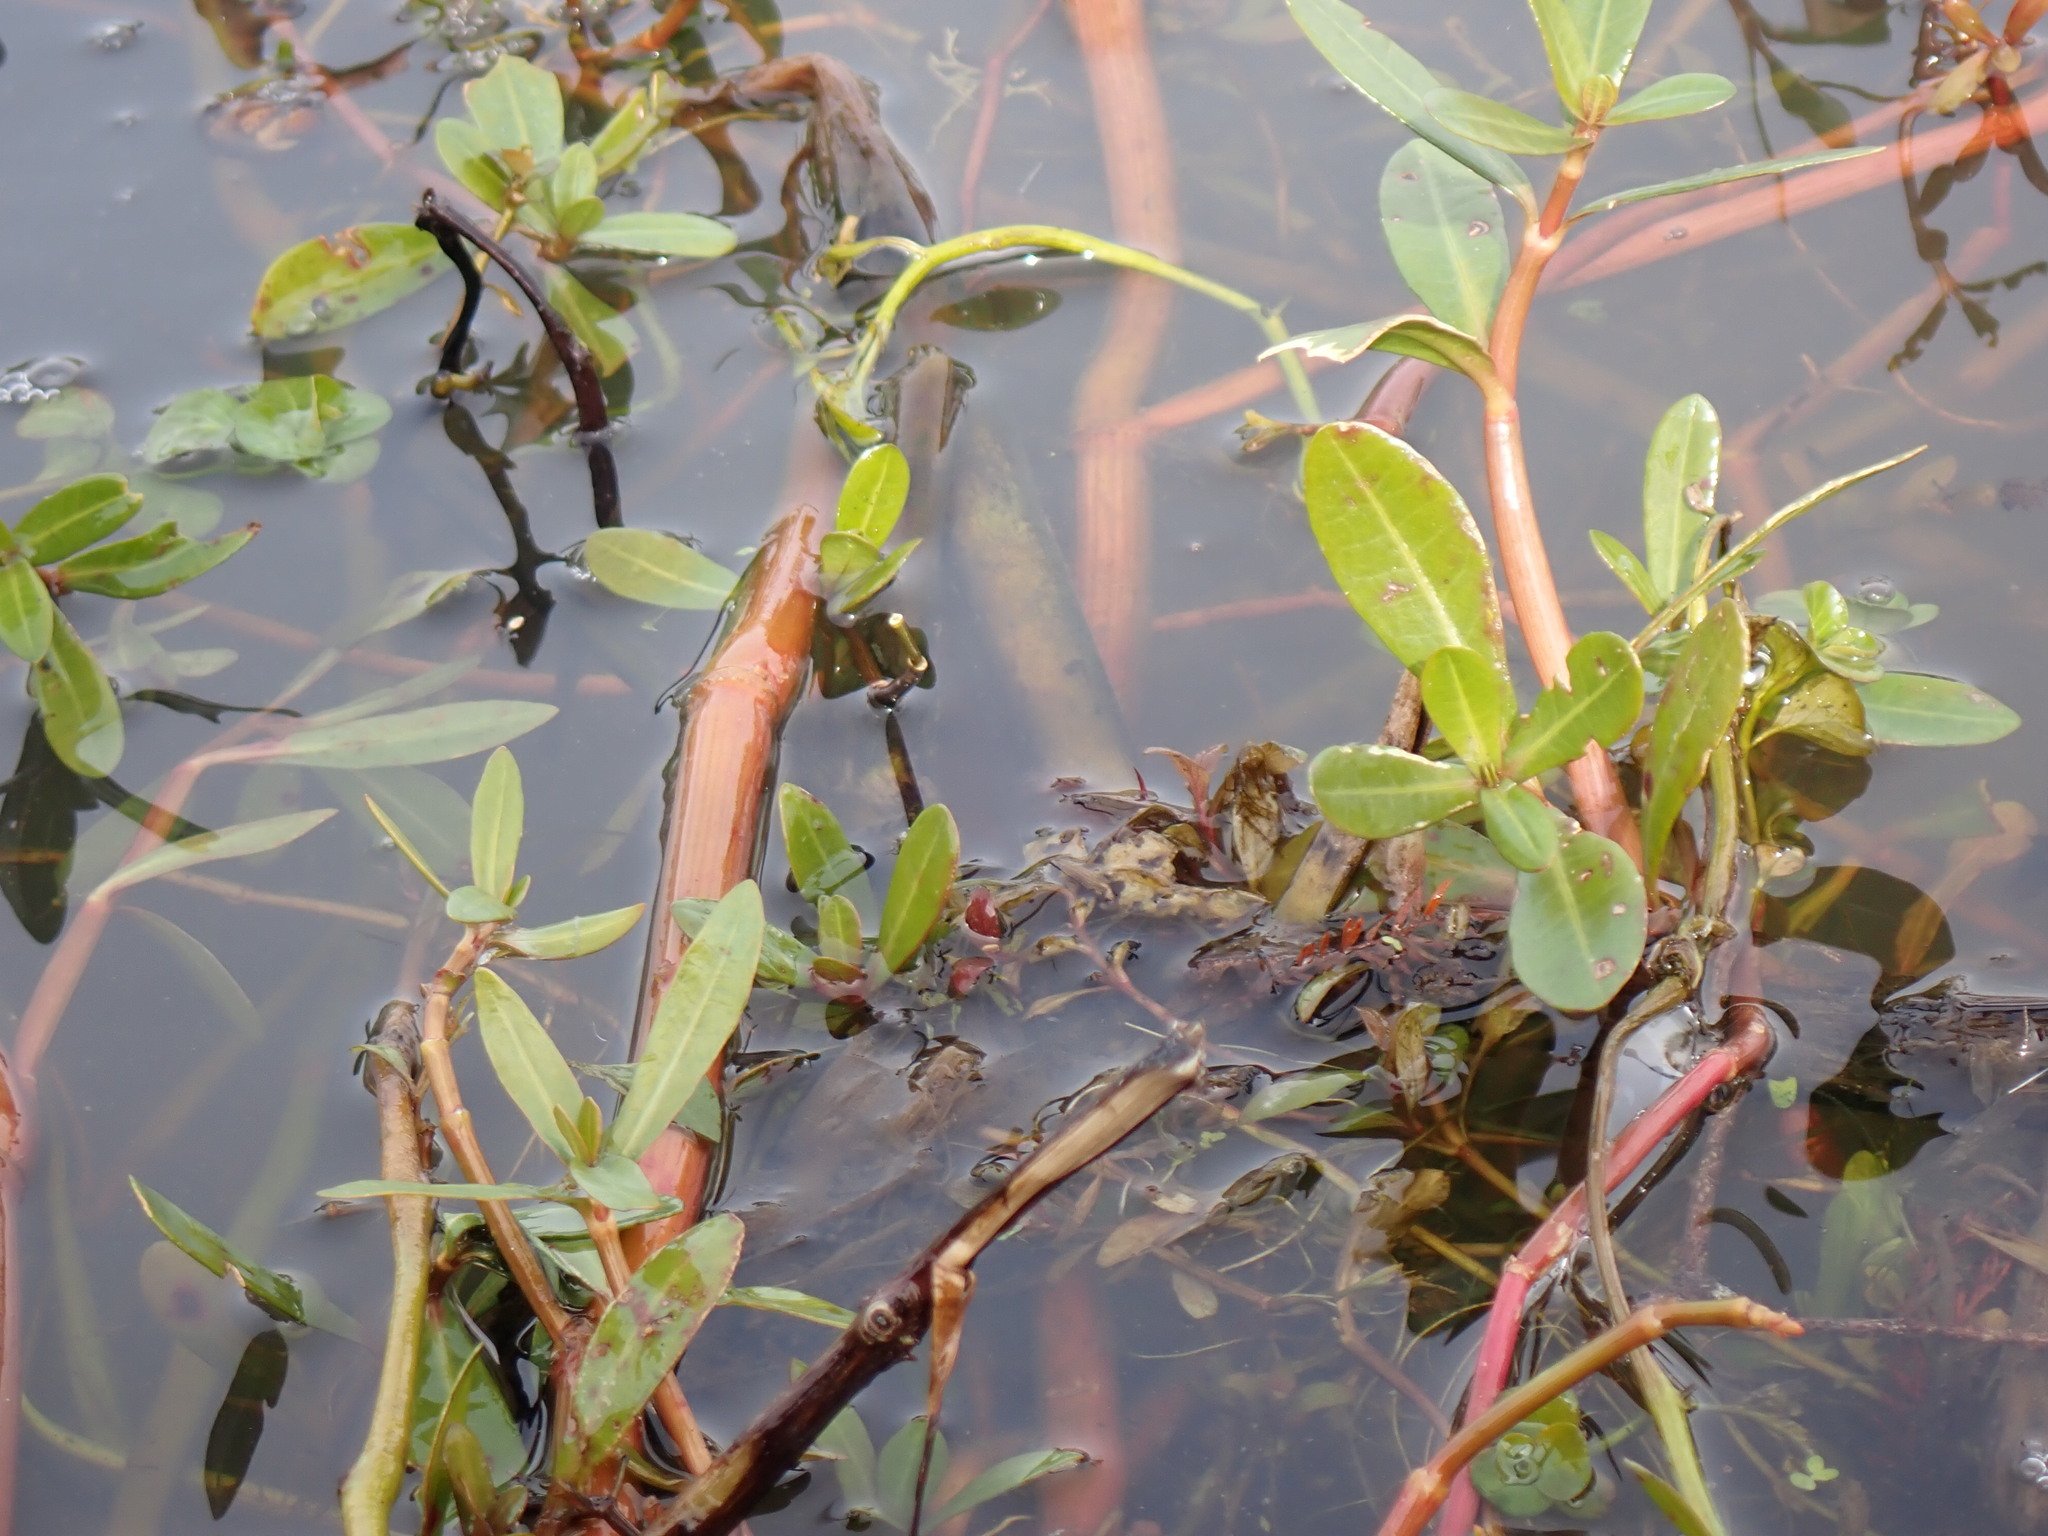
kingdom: Plantae
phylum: Tracheophyta
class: Magnoliopsida
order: Caryophyllales
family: Amaranthaceae
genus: Alternanthera
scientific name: Alternanthera philoxeroides
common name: Alligatorweed
